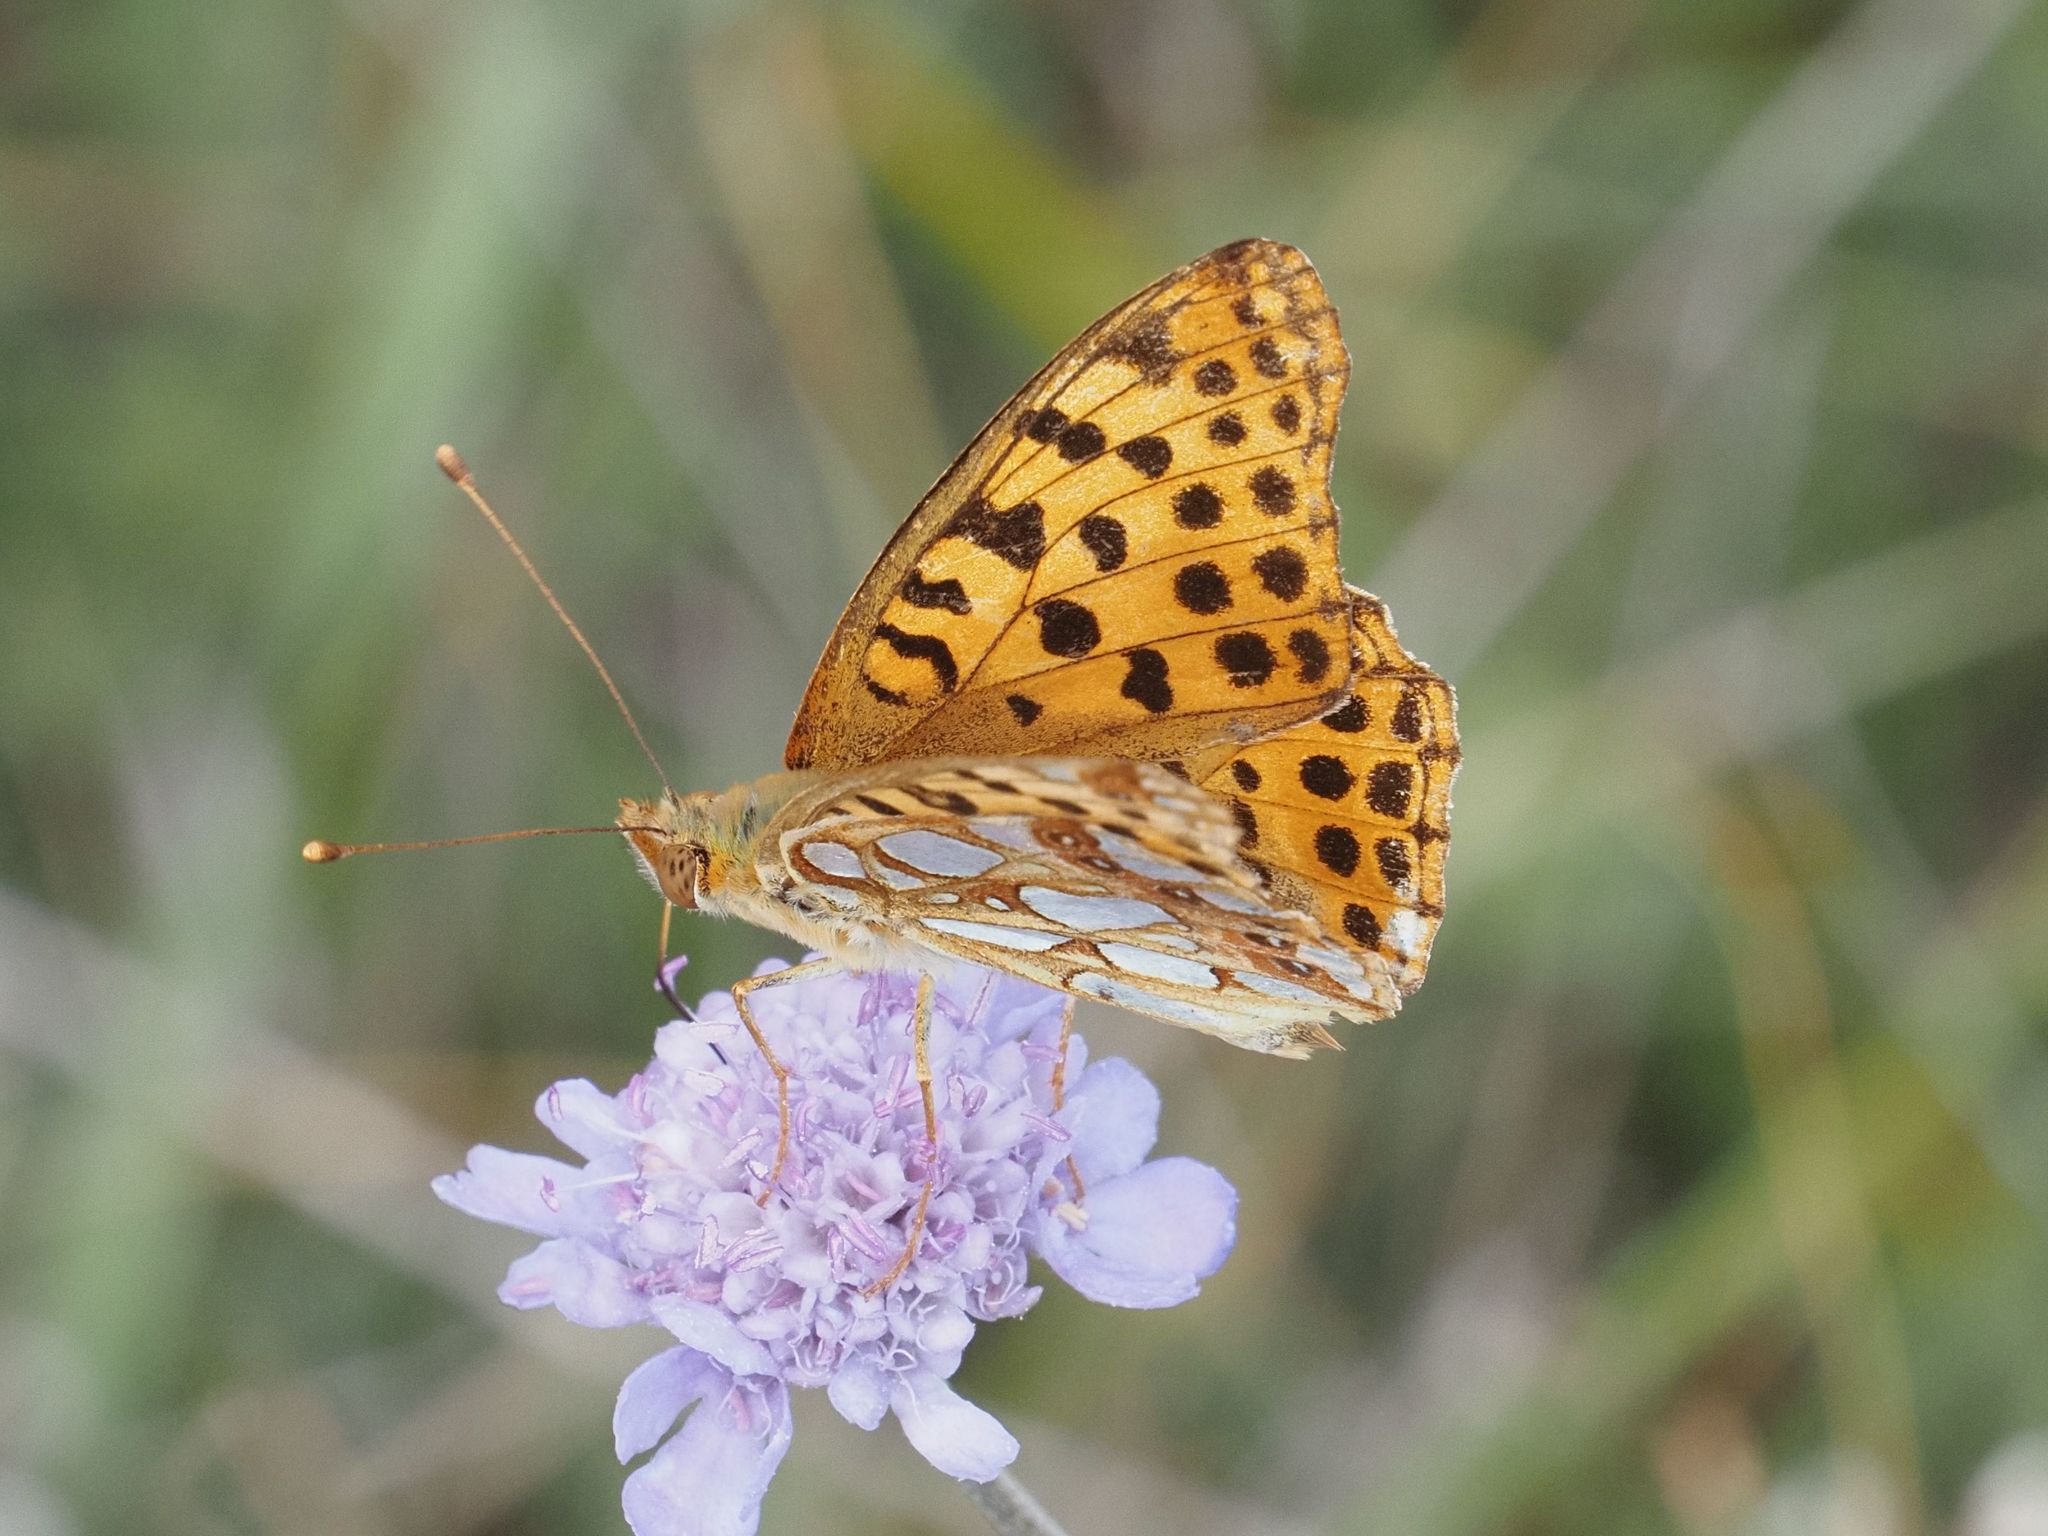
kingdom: Animalia
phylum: Arthropoda
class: Insecta
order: Lepidoptera
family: Nymphalidae
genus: Issoria
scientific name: Issoria lathonia
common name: Queen of spain fritillary
